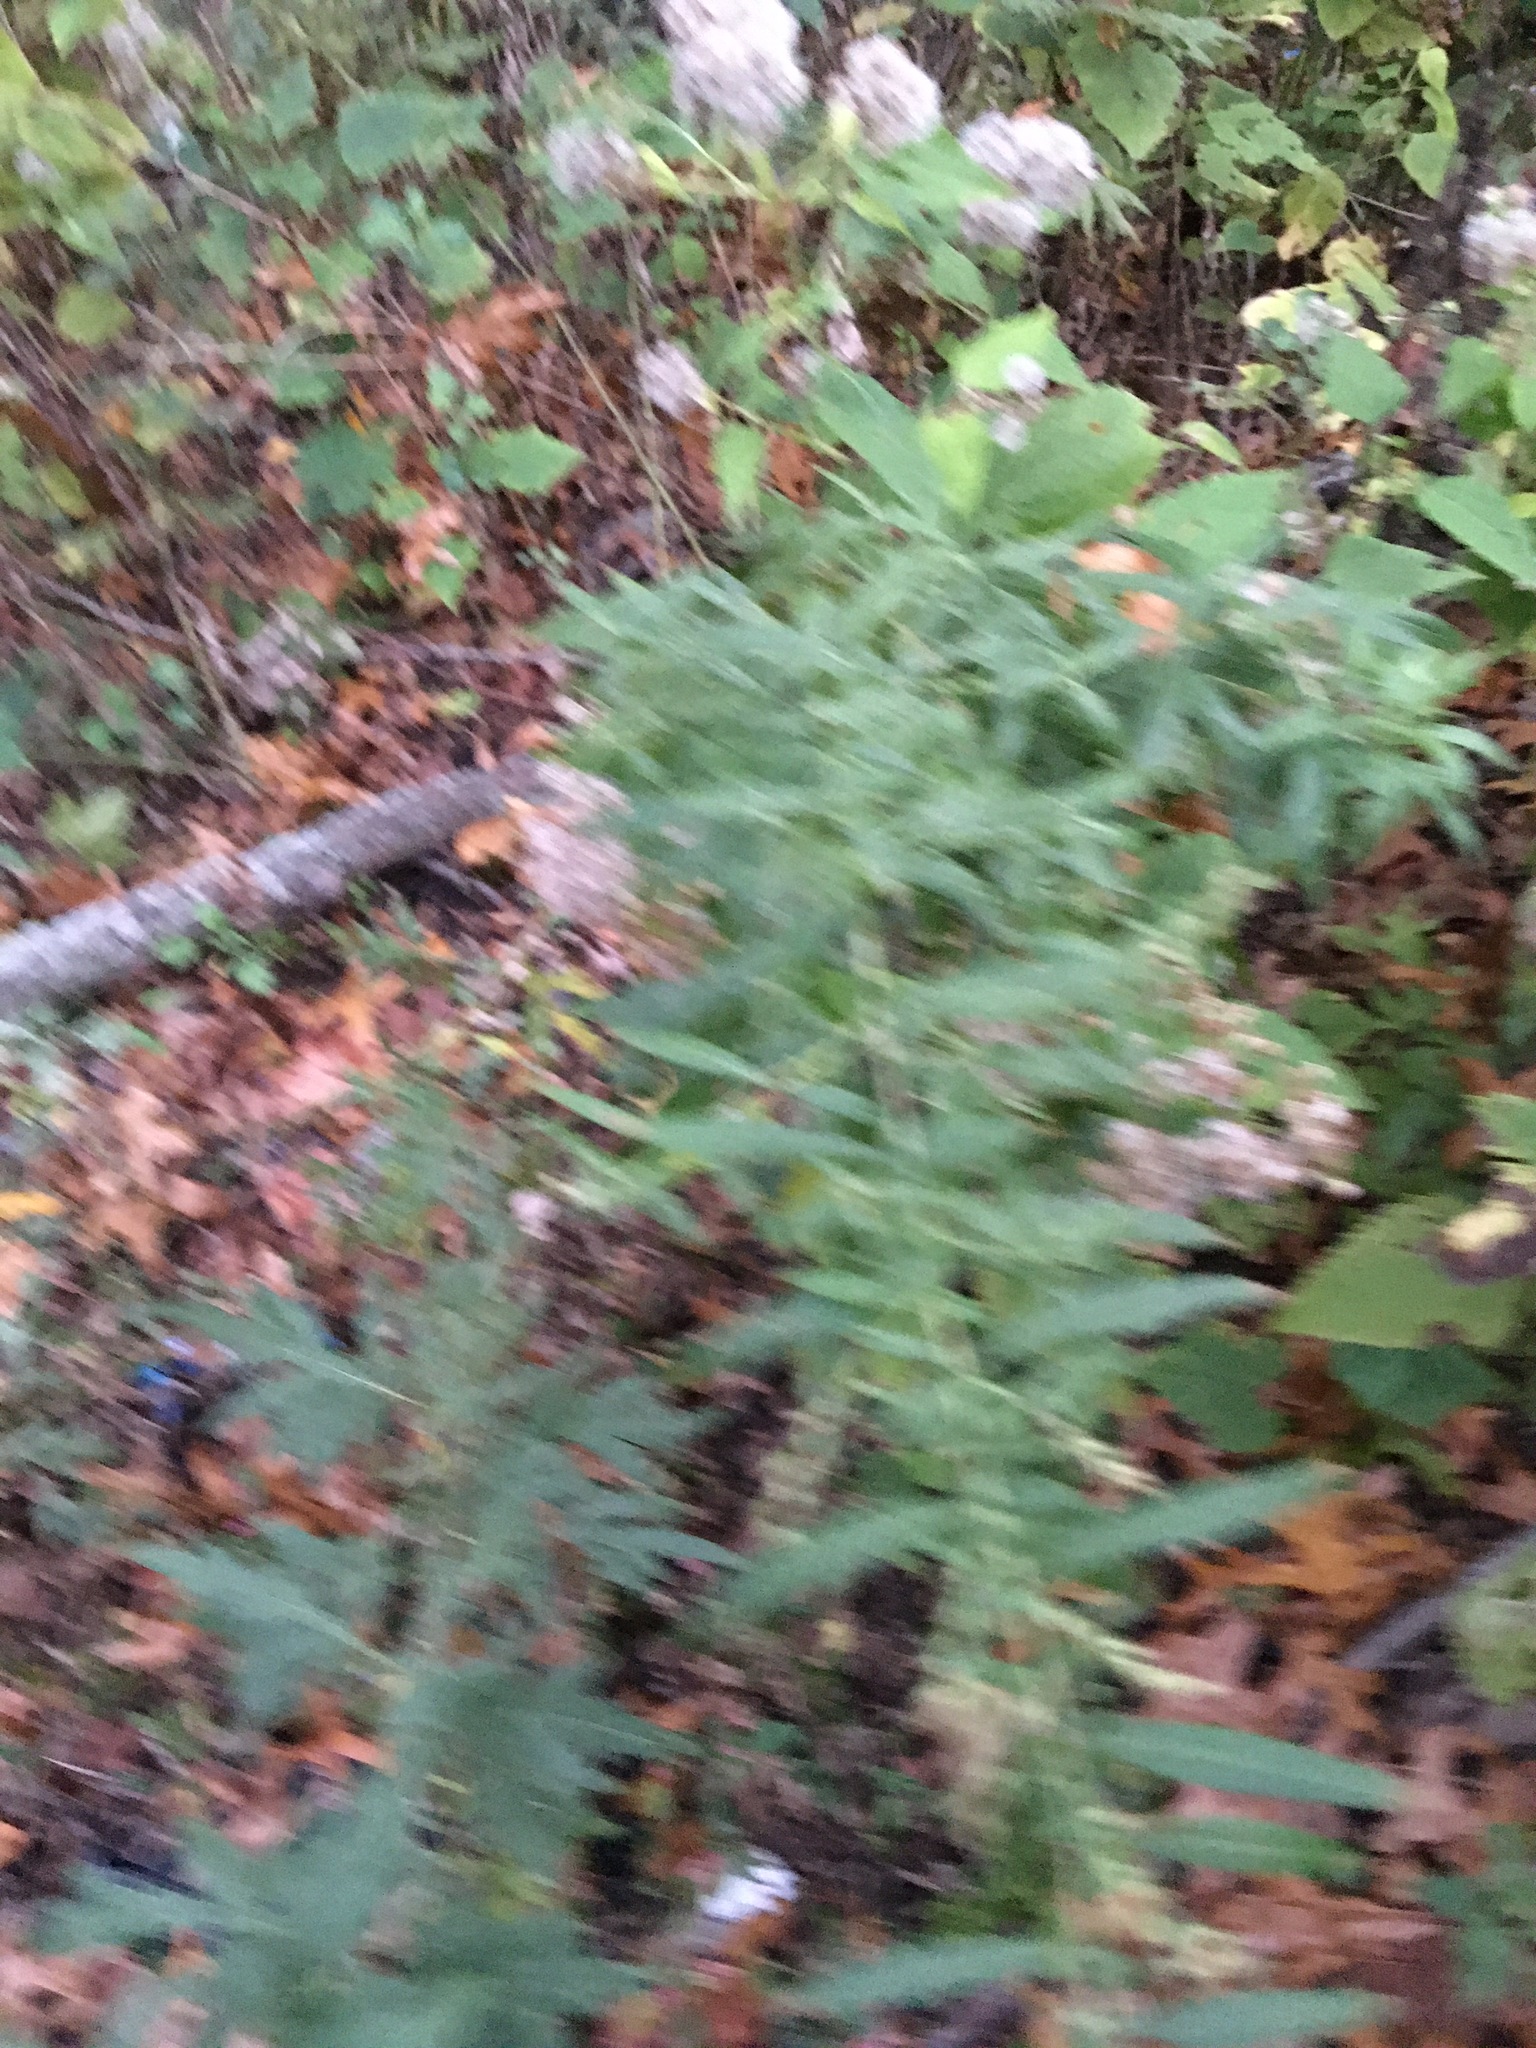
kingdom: Plantae
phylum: Tracheophyta
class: Magnoliopsida
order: Asterales
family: Asteraceae
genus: Artemisia
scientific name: Artemisia vulgaris
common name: Mugwort
